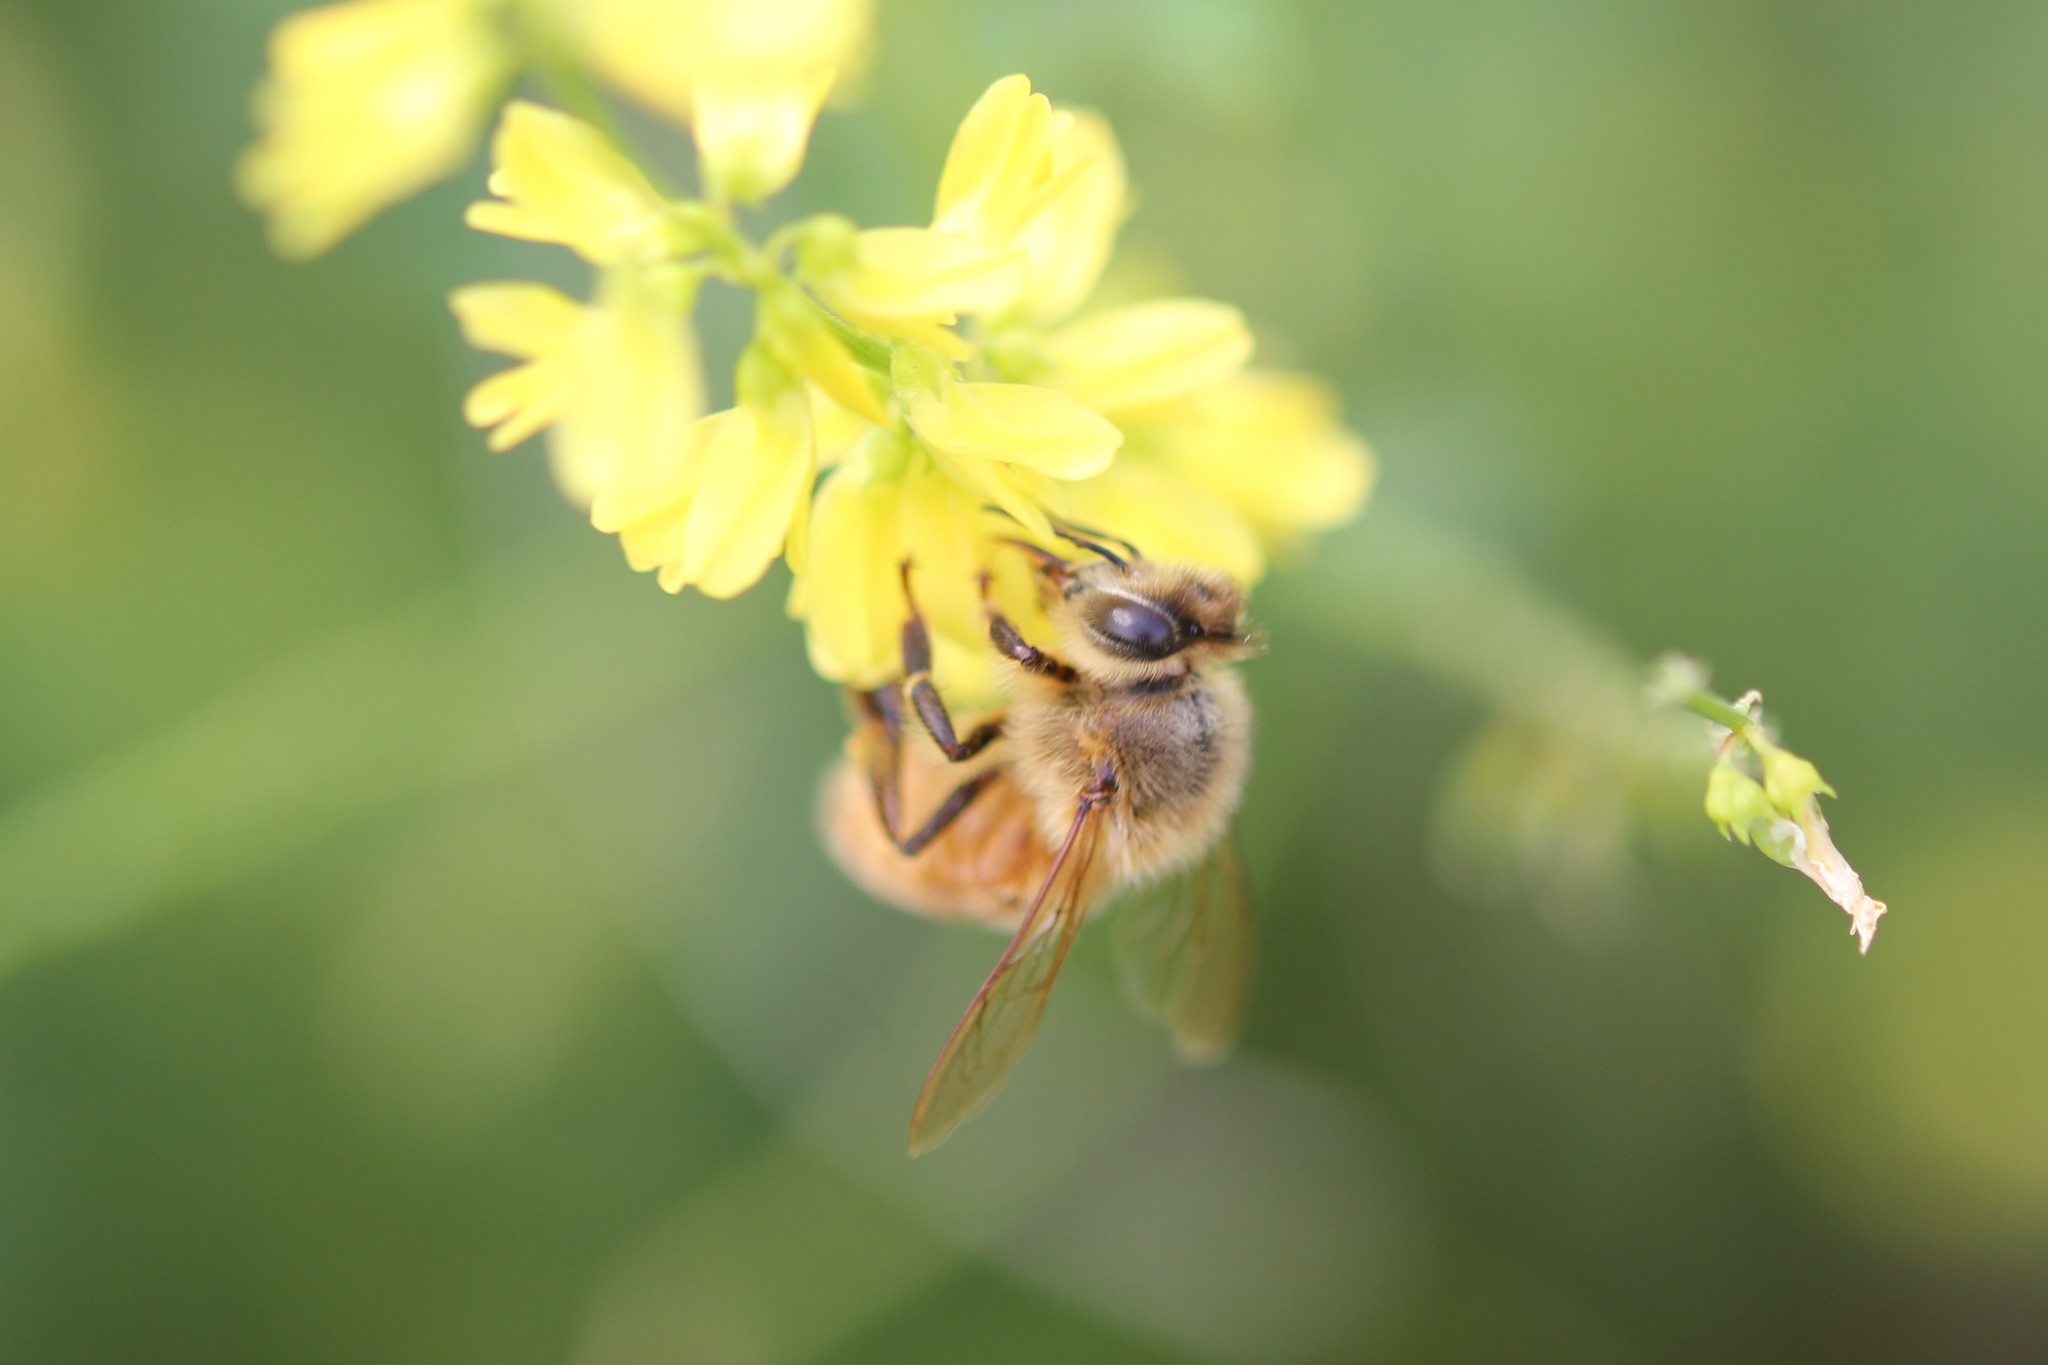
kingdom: Animalia
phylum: Arthropoda
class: Insecta
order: Hymenoptera
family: Apidae
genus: Apis
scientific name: Apis mellifera
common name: Honey bee
